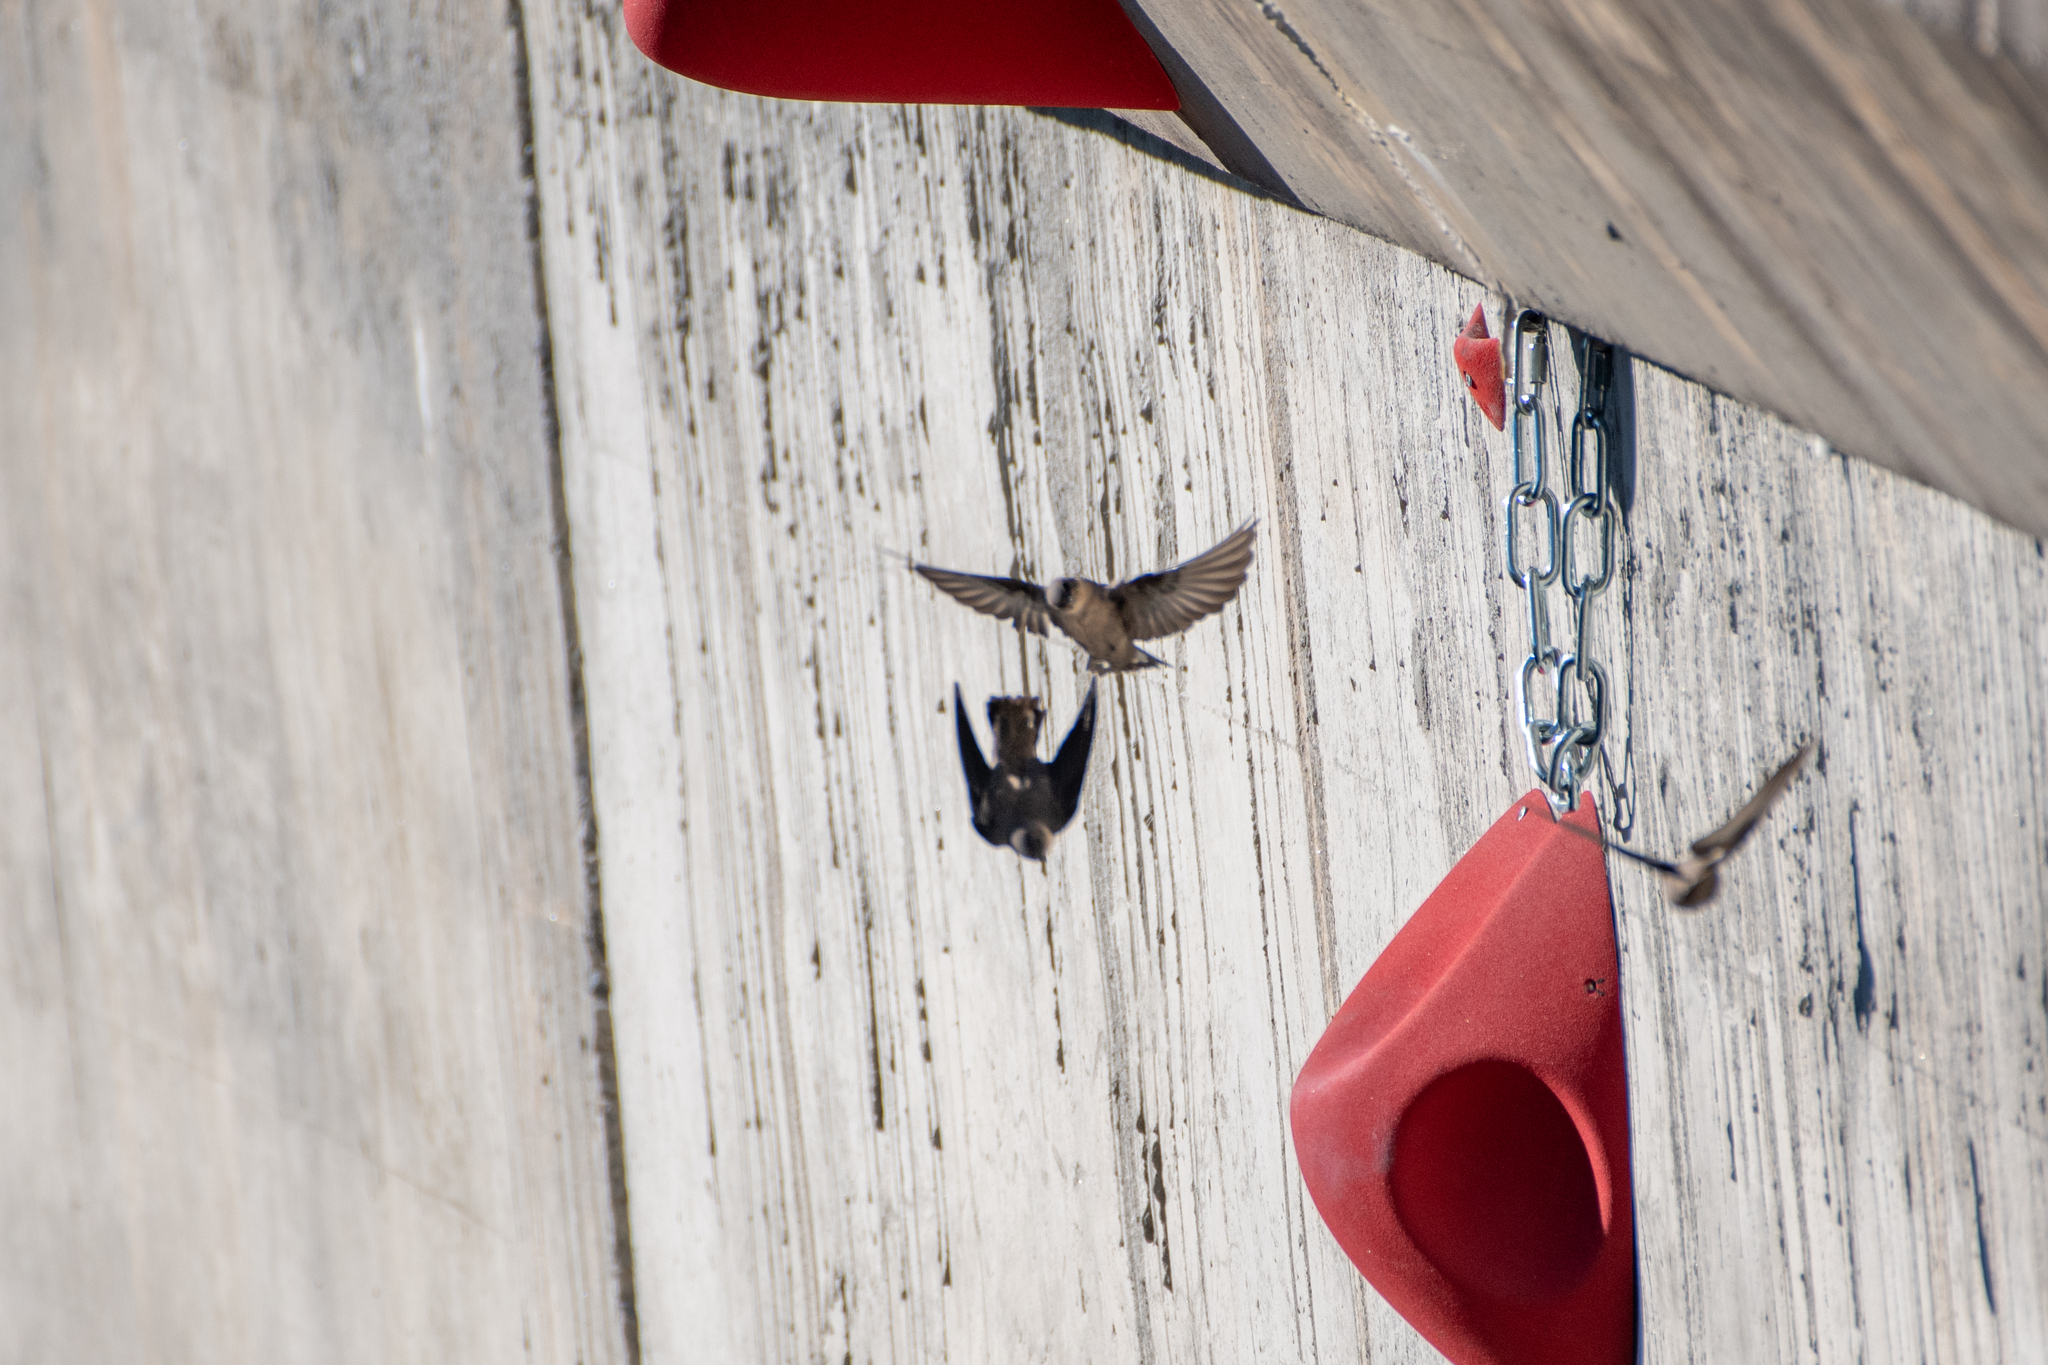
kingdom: Animalia
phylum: Chordata
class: Aves
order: Passeriformes
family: Hirundinidae
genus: Ptyonoprogne
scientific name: Ptyonoprogne rupestris
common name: Eurasian crag martin
